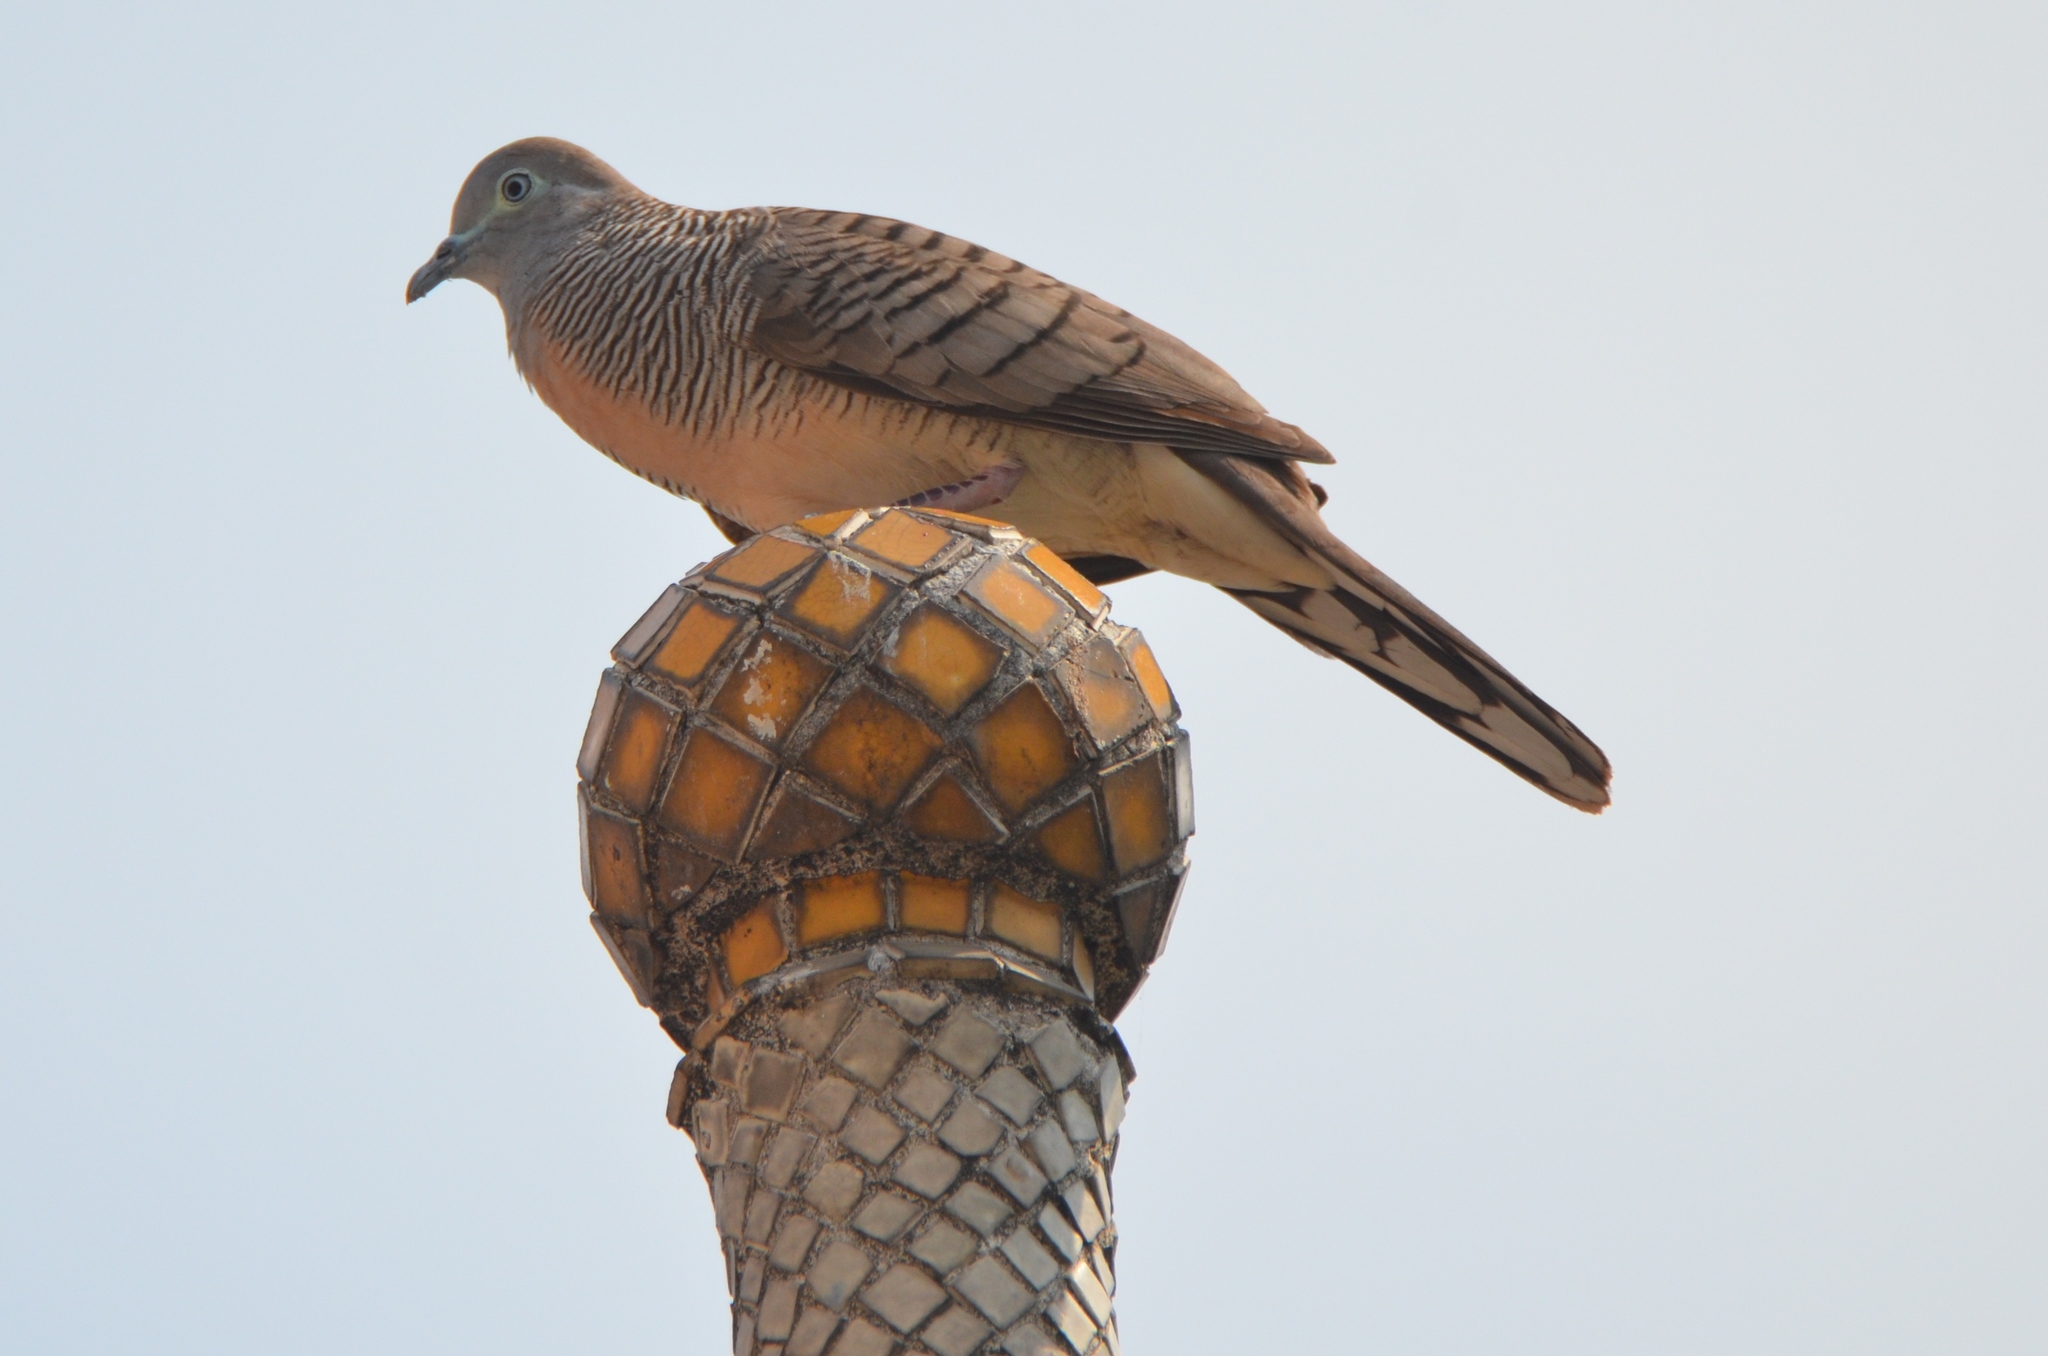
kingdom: Animalia
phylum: Chordata
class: Aves
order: Columbiformes
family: Columbidae
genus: Geopelia
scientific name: Geopelia striata
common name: Zebra dove
